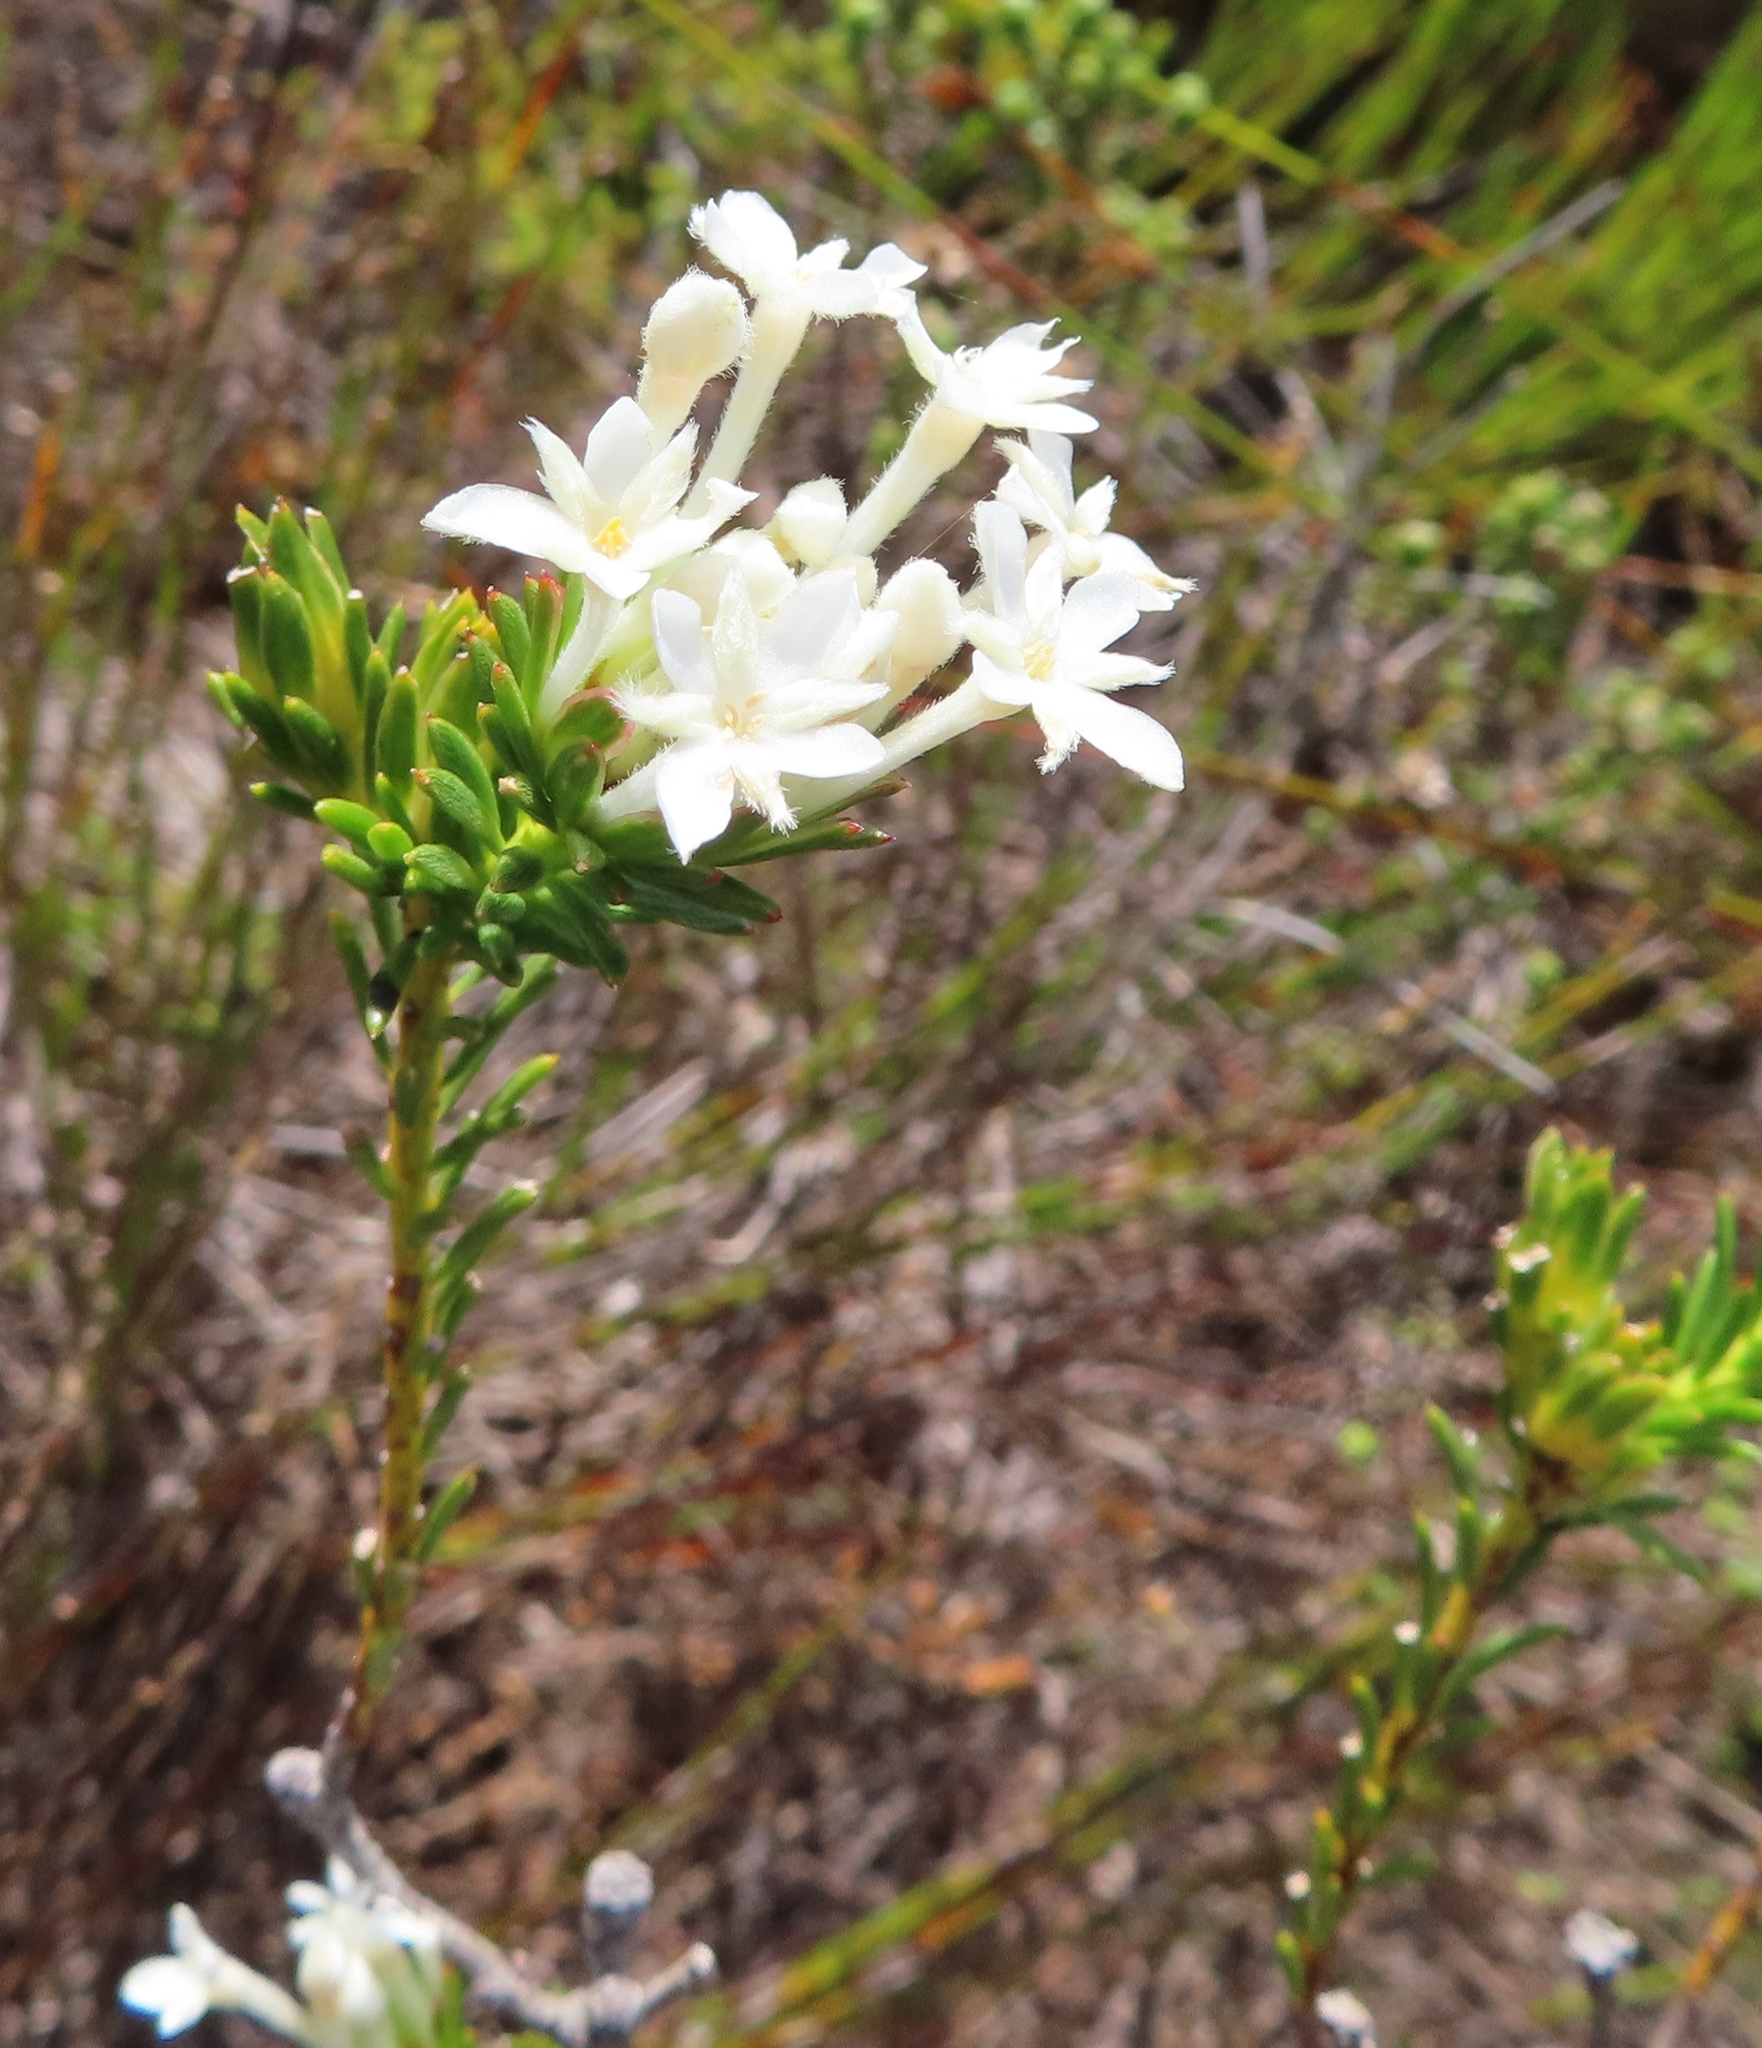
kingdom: Plantae
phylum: Tracheophyta
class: Magnoliopsida
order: Malvales
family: Thymelaeaceae
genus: Gnidia
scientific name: Gnidia pinifolia
